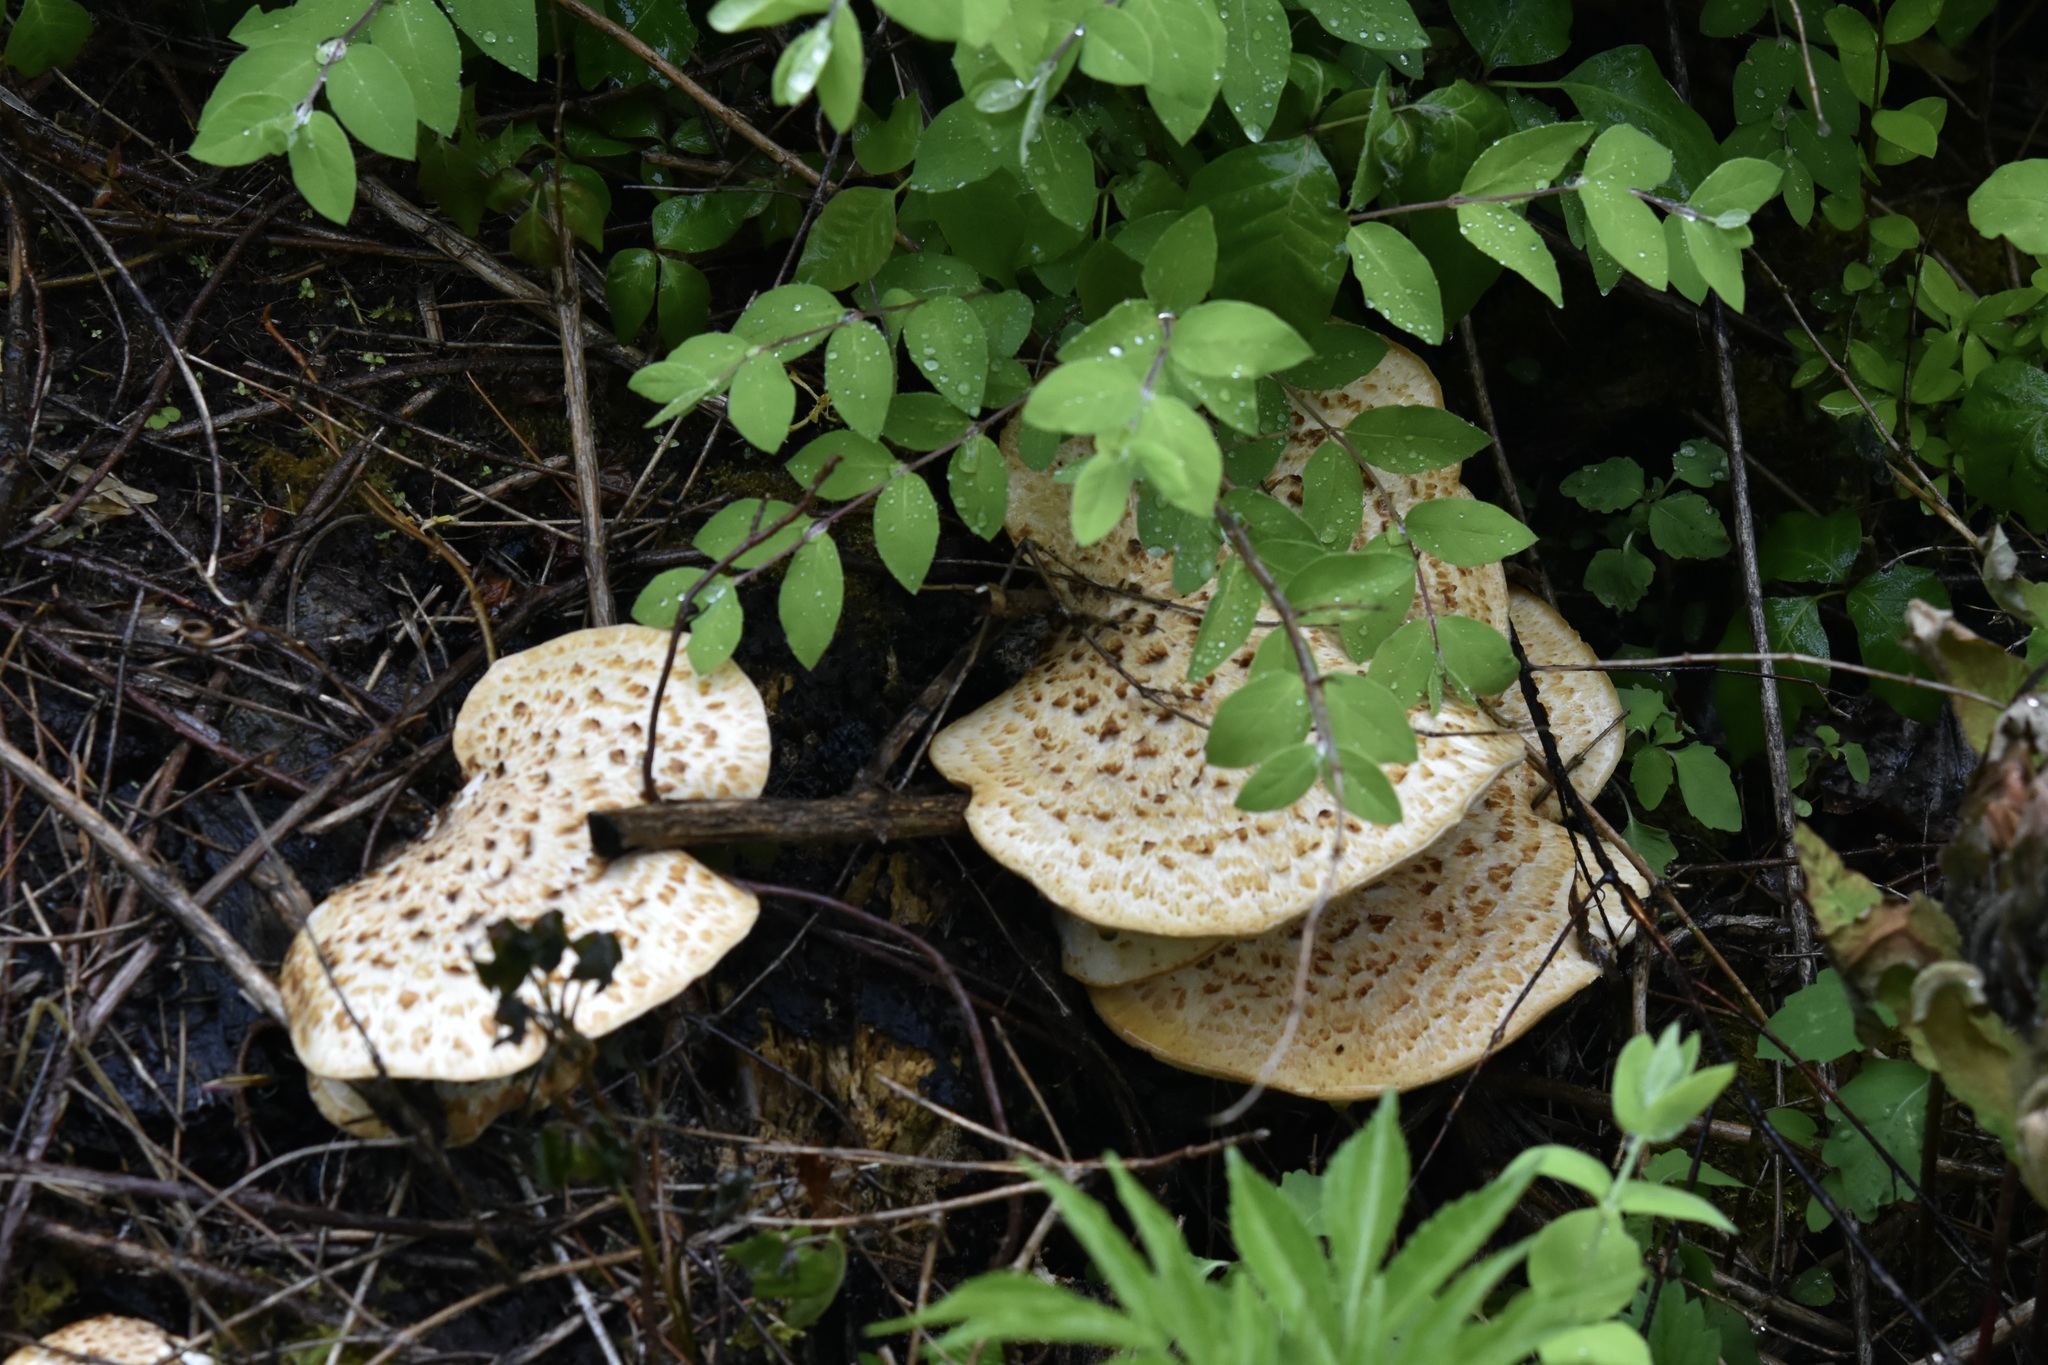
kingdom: Fungi
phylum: Basidiomycota
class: Agaricomycetes
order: Polyporales
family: Polyporaceae
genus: Cerioporus
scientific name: Cerioporus squamosus
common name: Dryad's saddle
